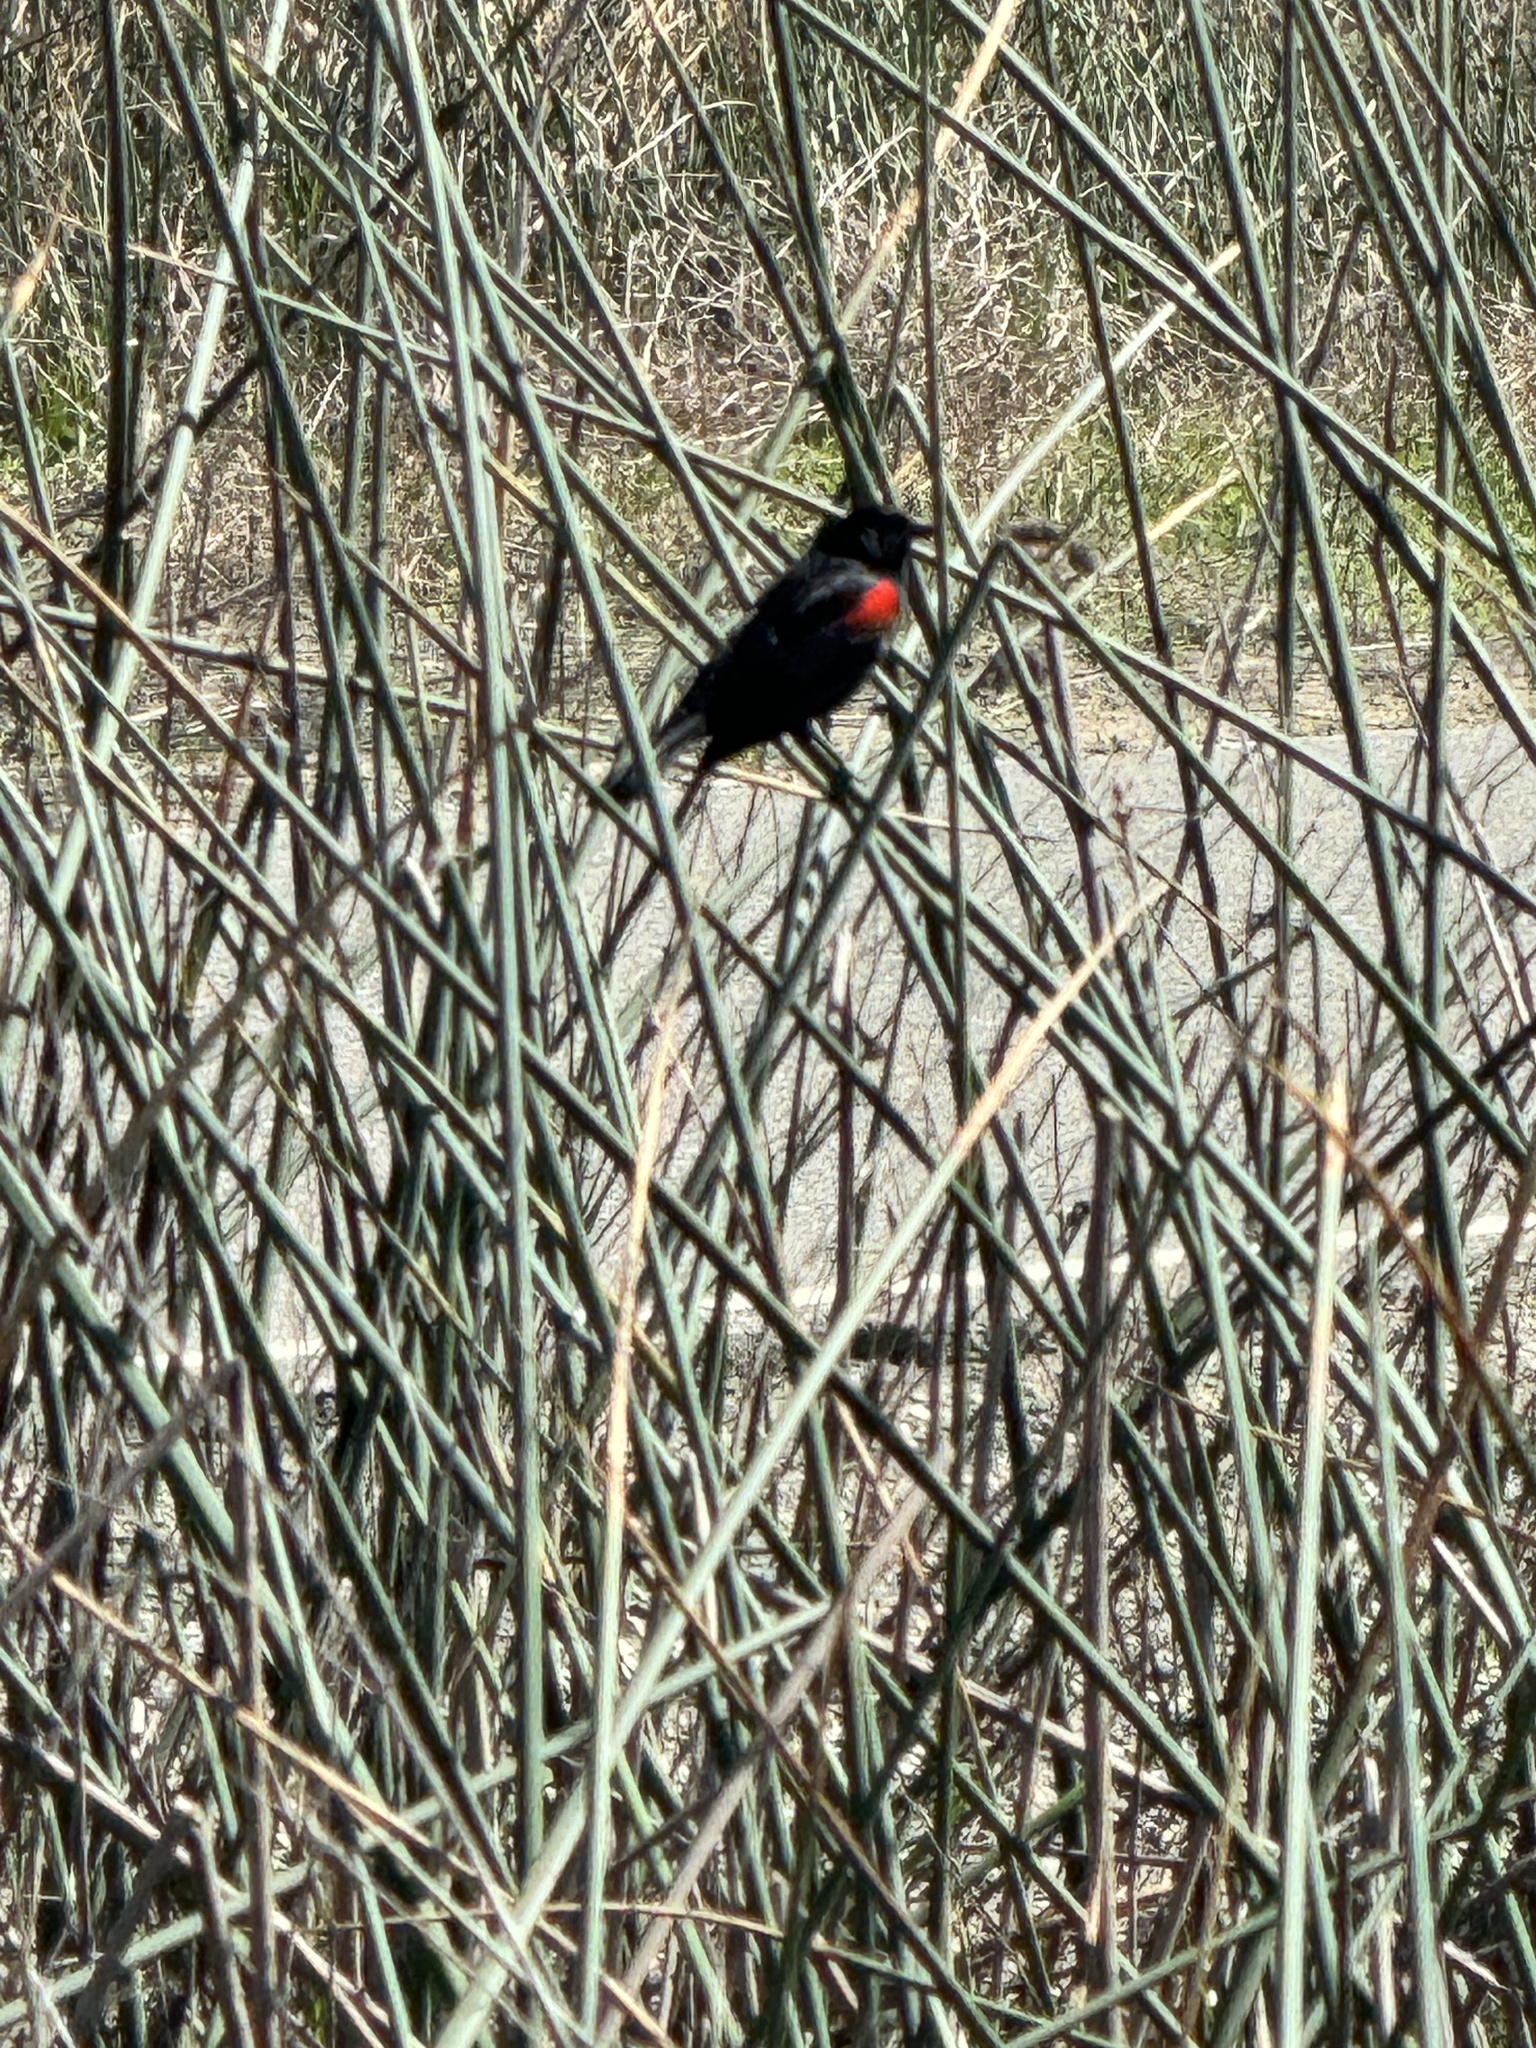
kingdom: Animalia
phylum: Chordata
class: Aves
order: Passeriformes
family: Icteridae
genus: Agelaius
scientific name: Agelaius phoeniceus
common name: Red-winged blackbird
